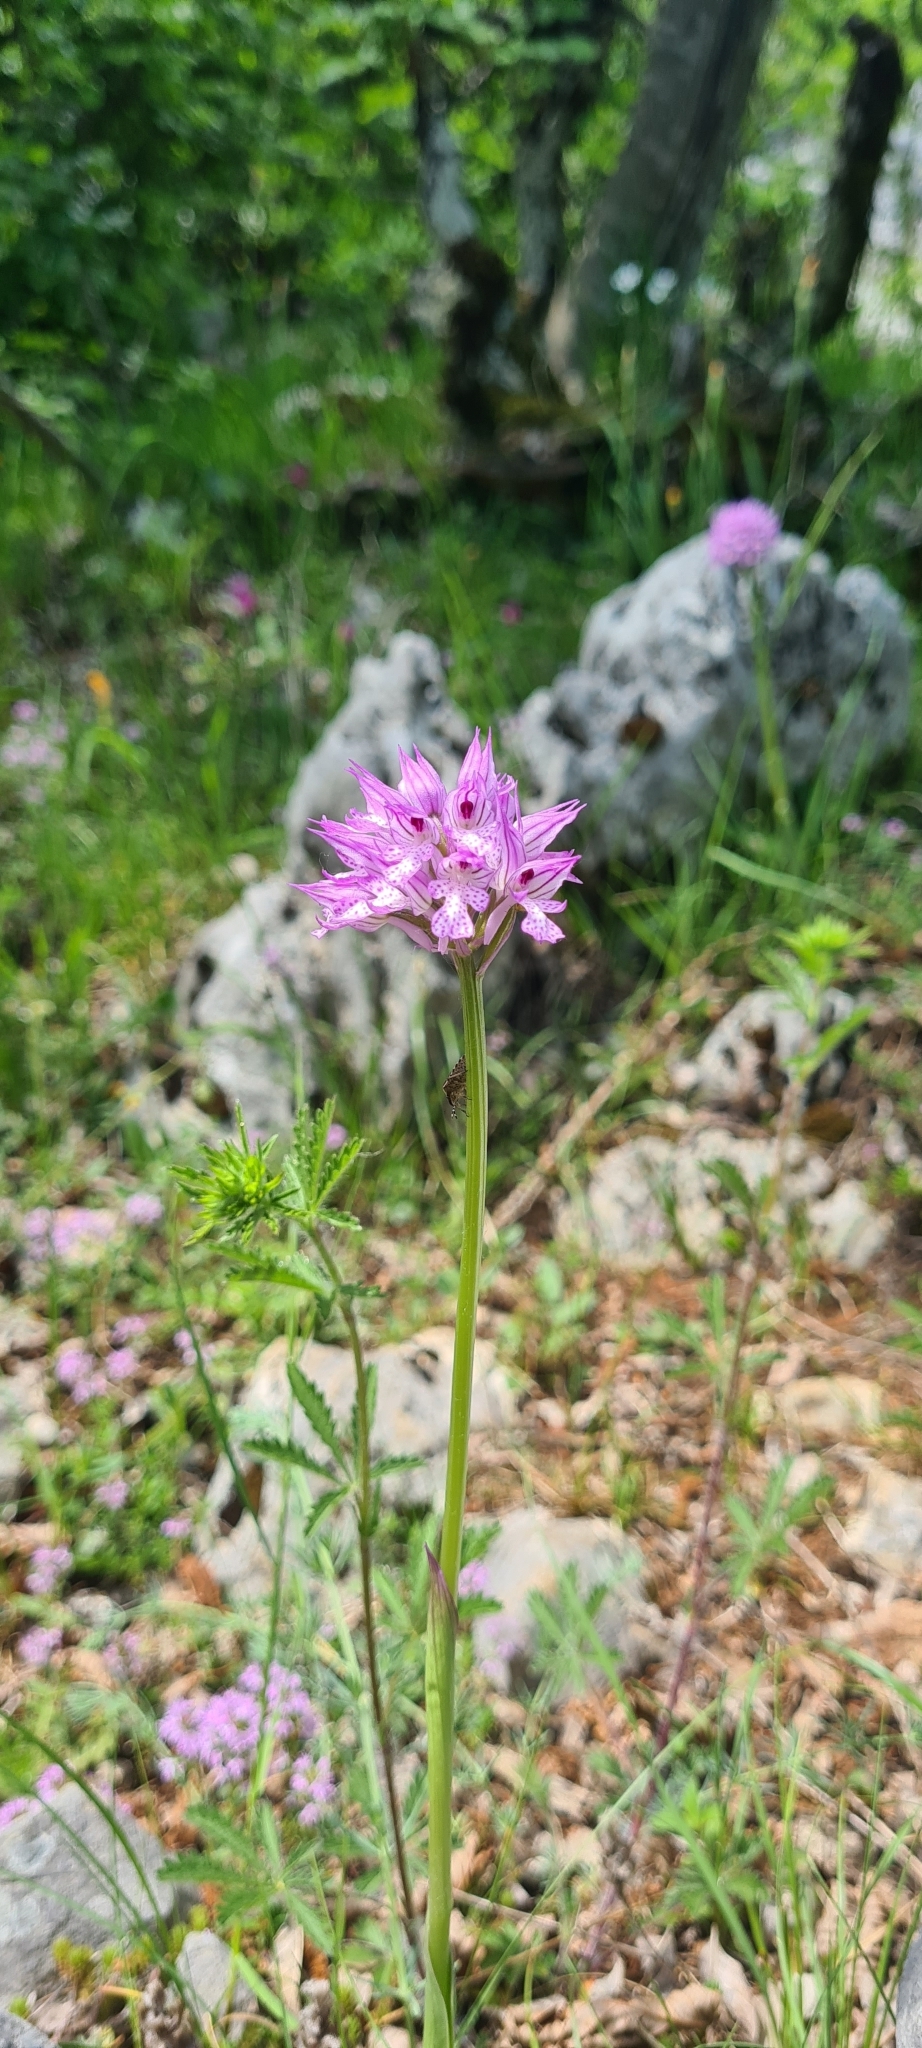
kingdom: Plantae
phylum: Tracheophyta
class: Liliopsida
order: Asparagales
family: Orchidaceae
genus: Neotinea
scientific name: Neotinea tridentata
